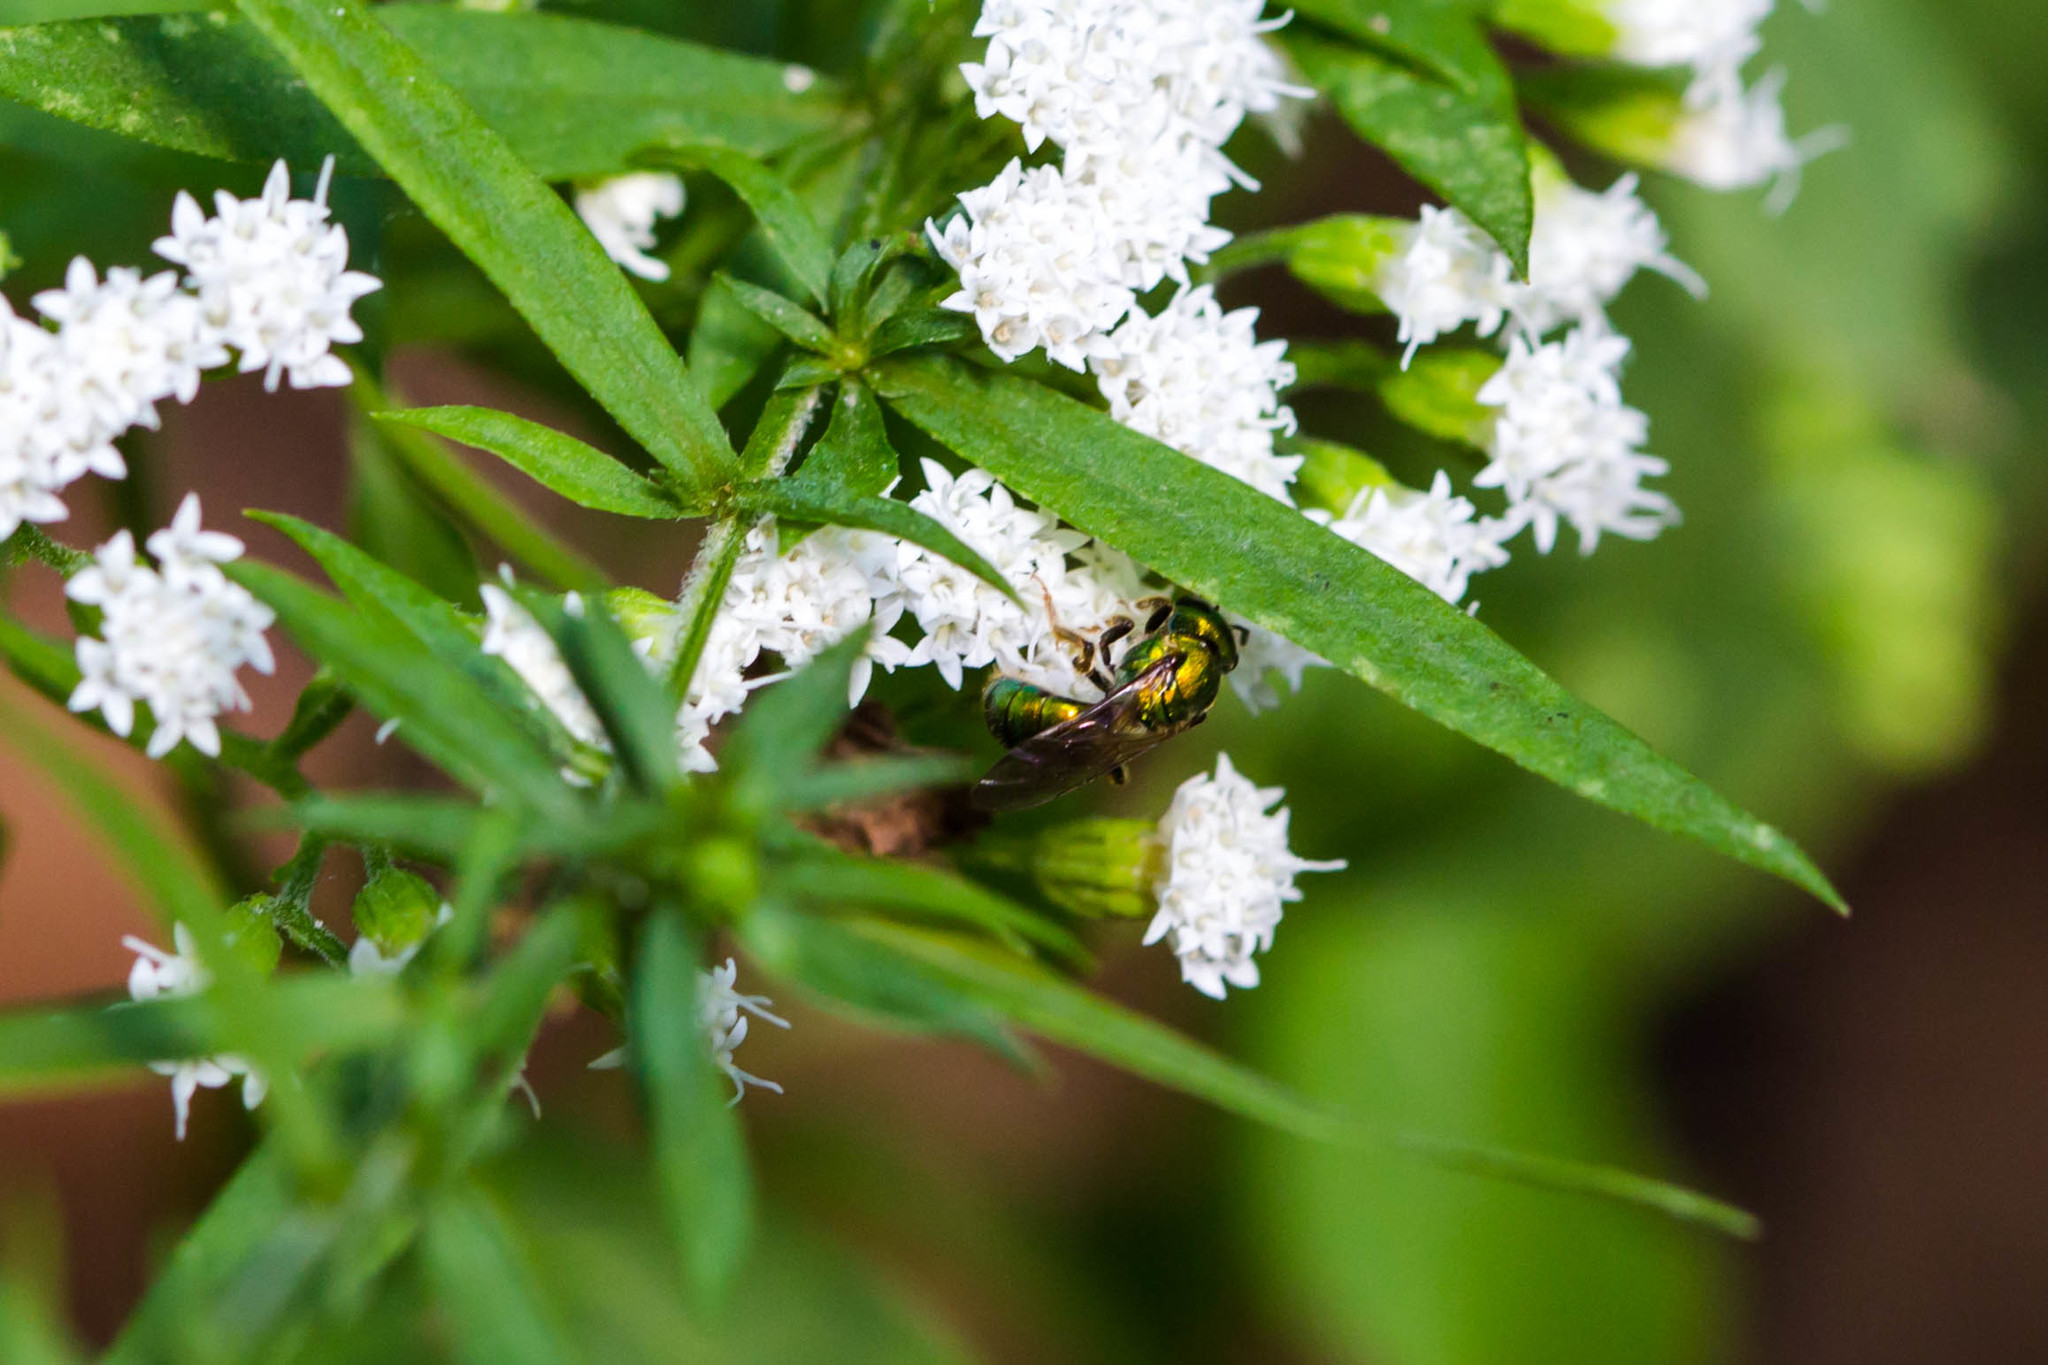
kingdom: Animalia
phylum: Arthropoda
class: Insecta
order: Hymenoptera
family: Halictidae
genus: Augochlora
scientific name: Augochlora pura
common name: Pure green sweat bee
